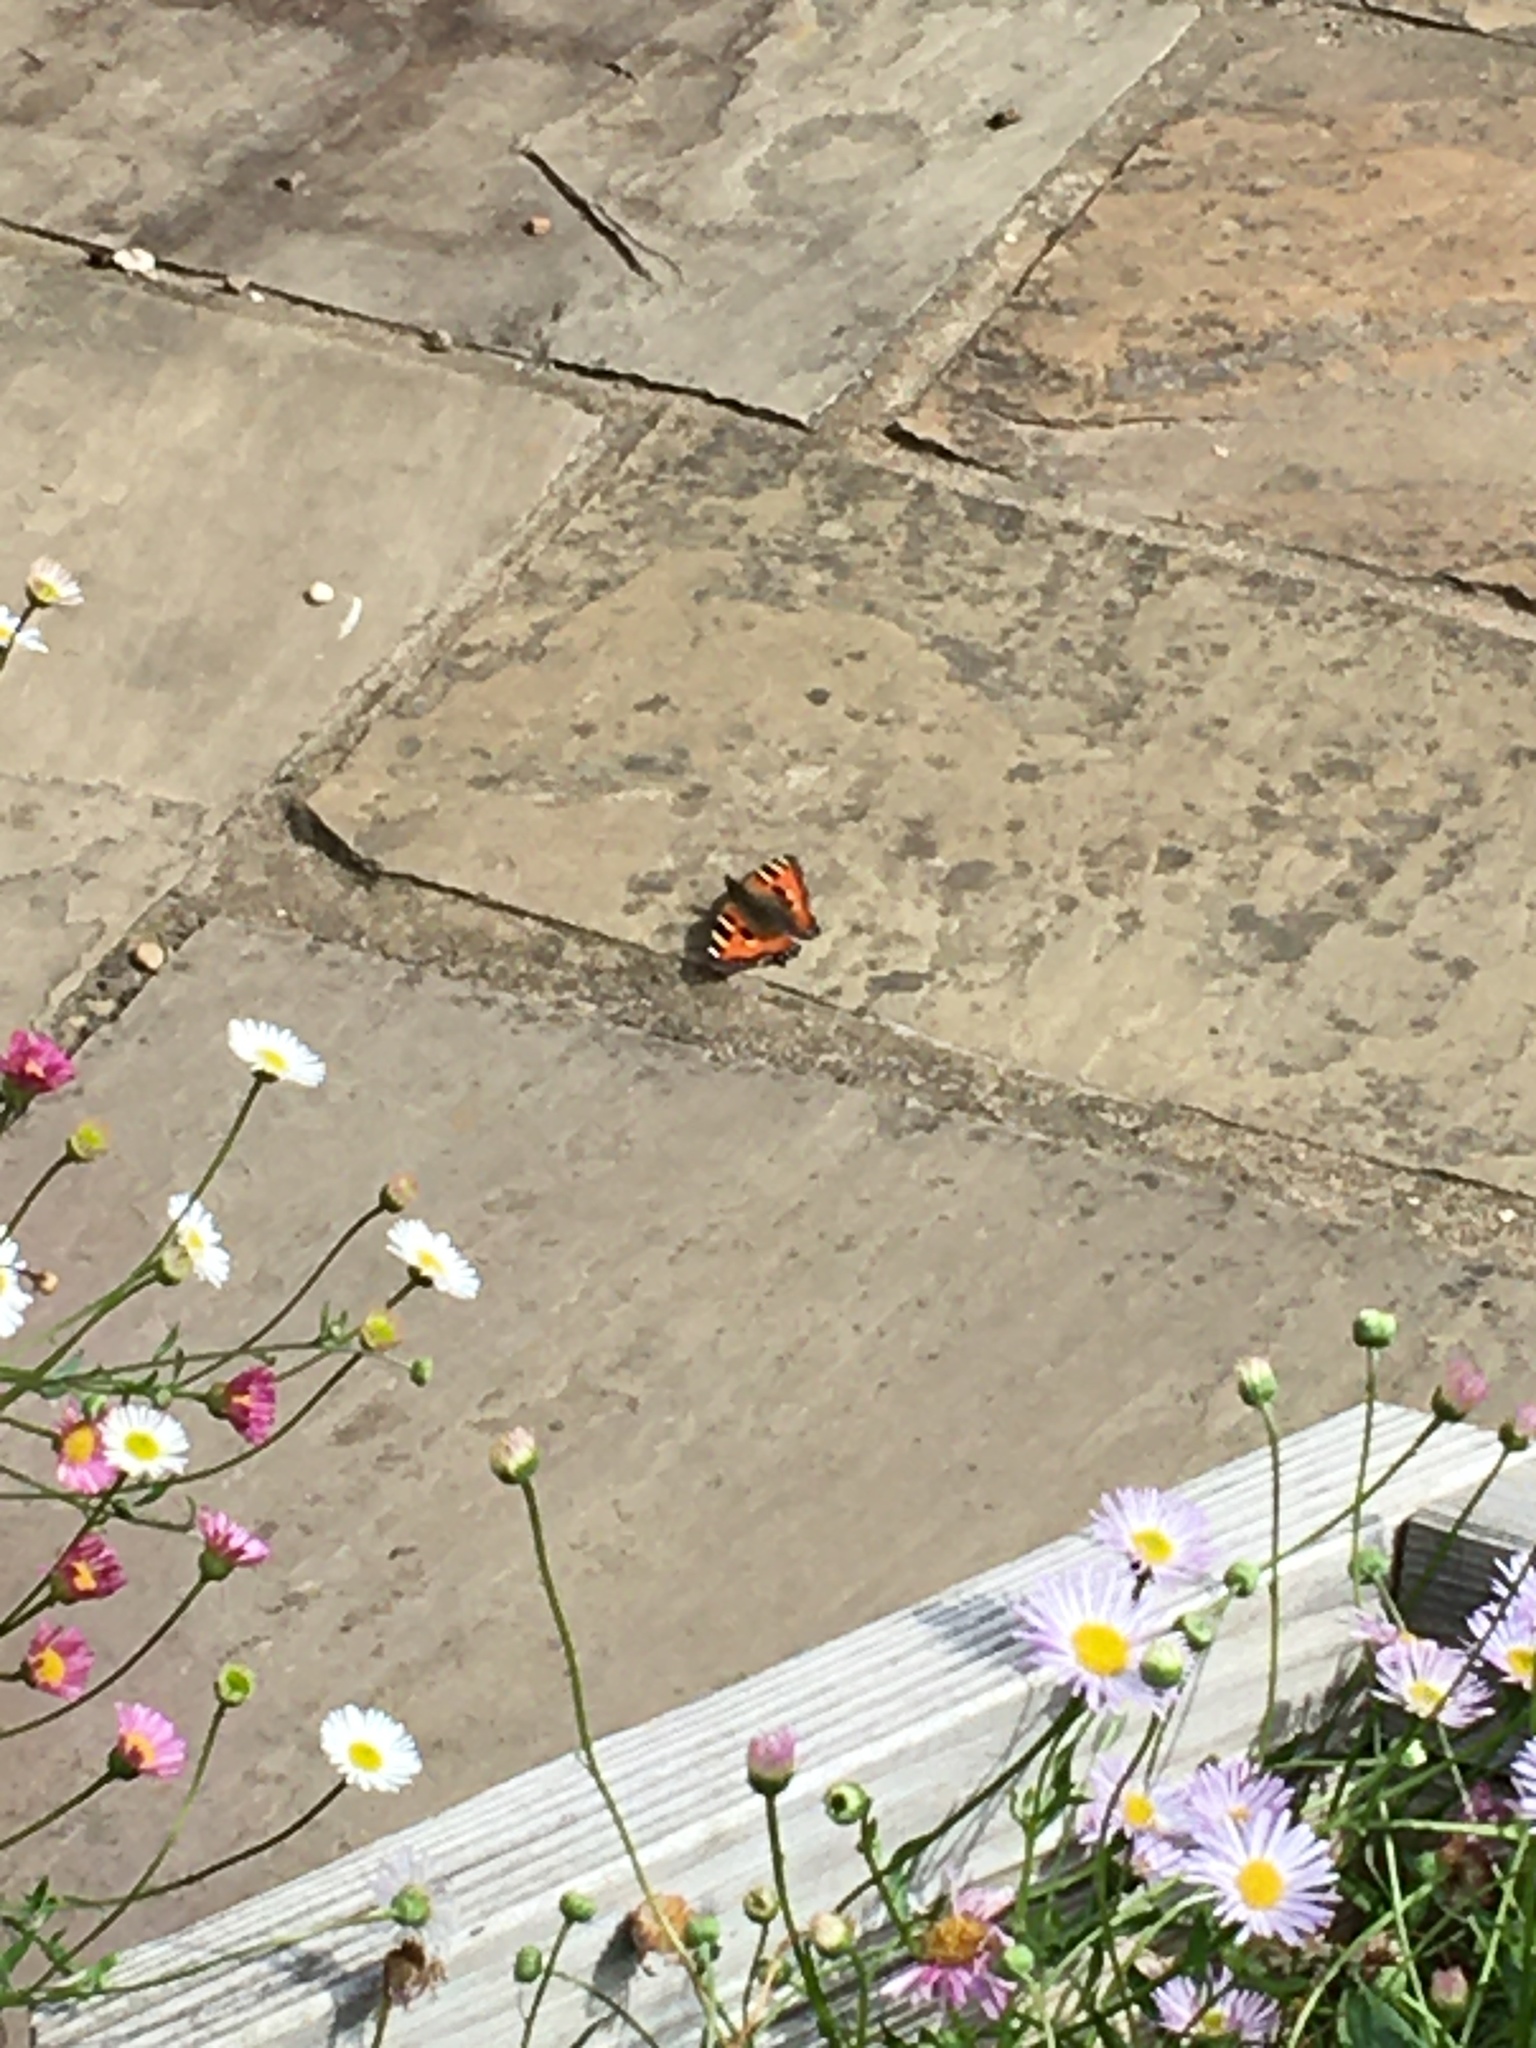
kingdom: Animalia
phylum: Arthropoda
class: Insecta
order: Lepidoptera
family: Nymphalidae
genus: Aglais
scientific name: Aglais urticae
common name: Small tortoiseshell
